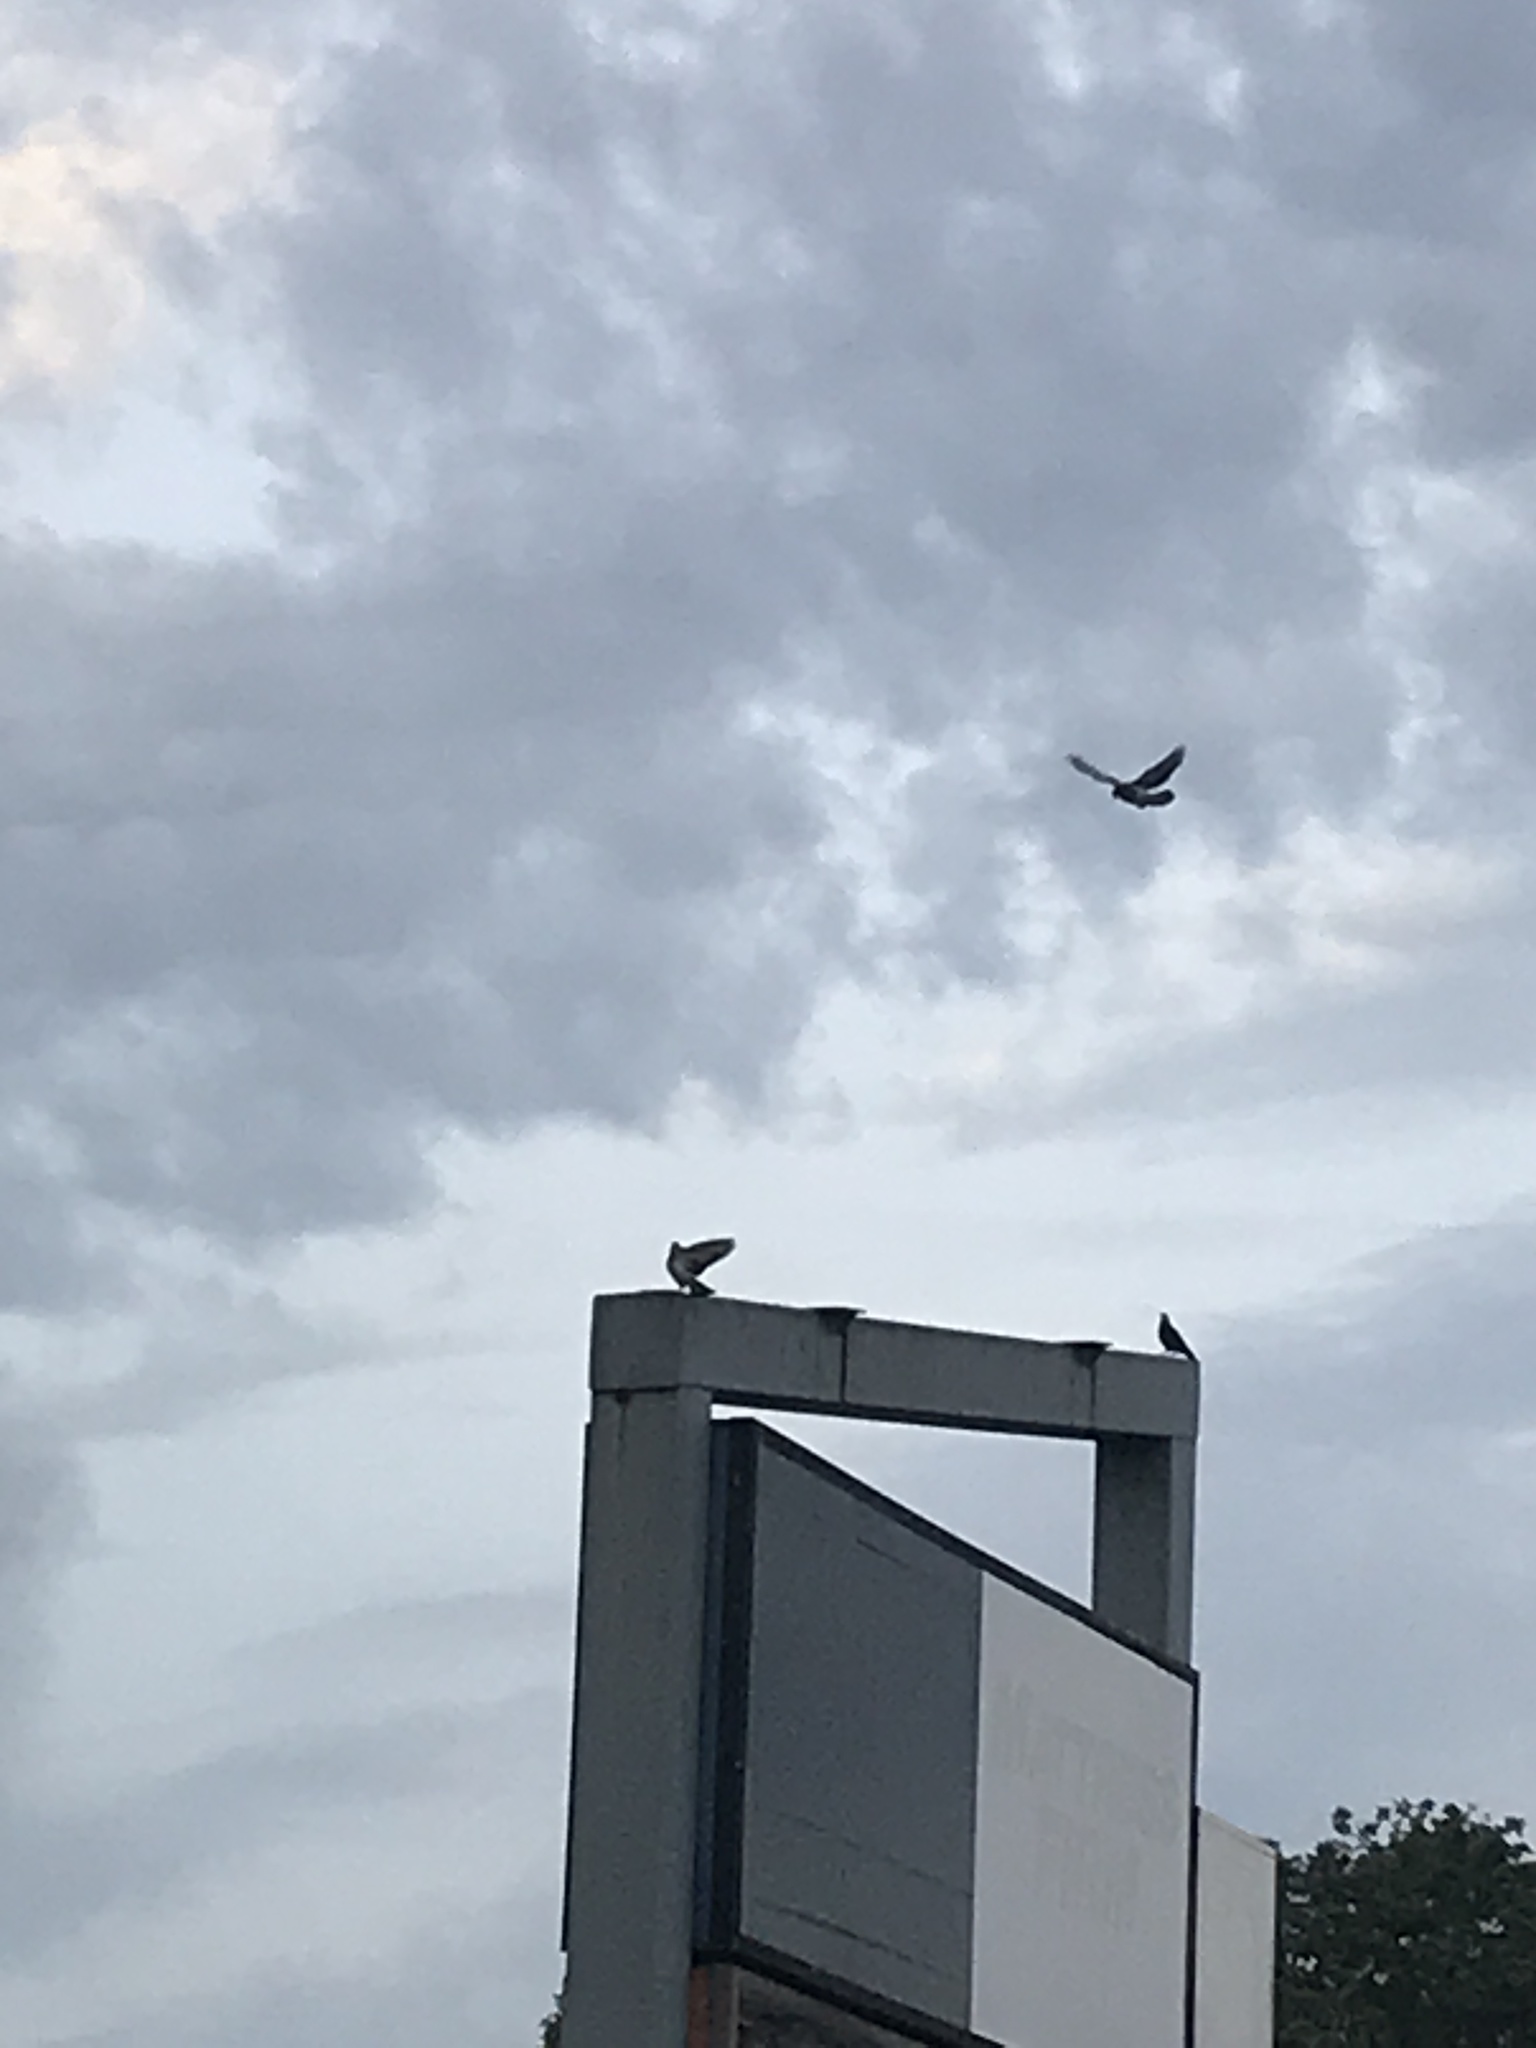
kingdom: Animalia
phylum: Chordata
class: Aves
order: Columbiformes
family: Columbidae
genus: Columba
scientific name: Columba livia
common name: Rock pigeon
